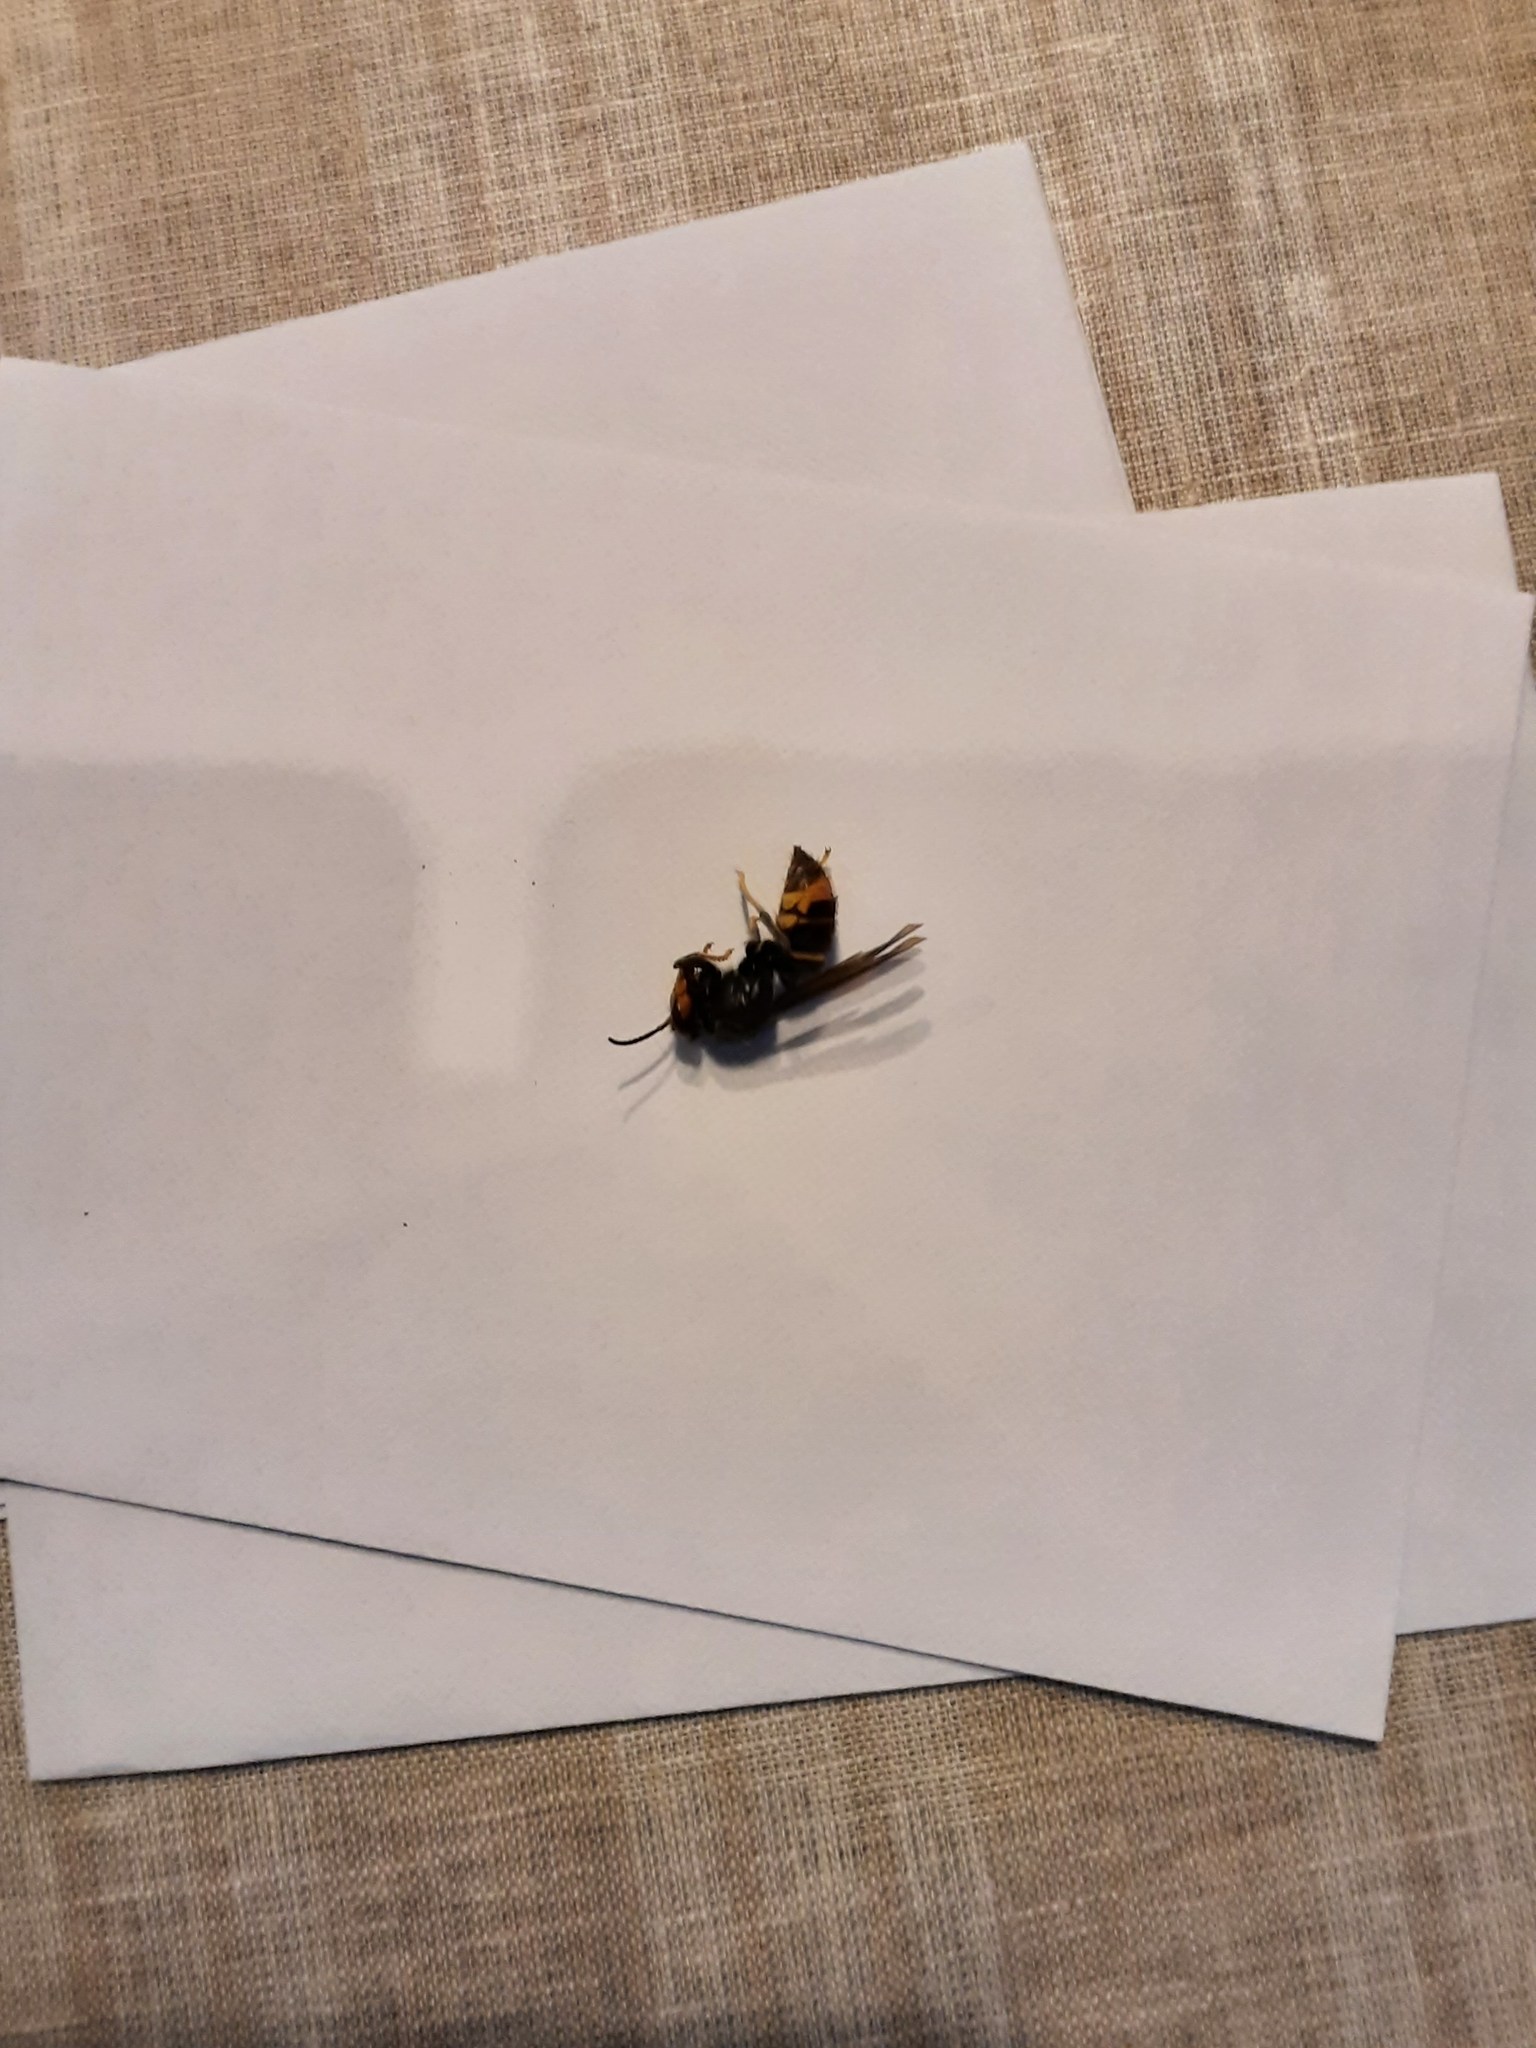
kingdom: Animalia
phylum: Arthropoda
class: Insecta
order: Hymenoptera
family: Vespidae
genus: Vespa
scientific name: Vespa velutina
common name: Asian hornet
